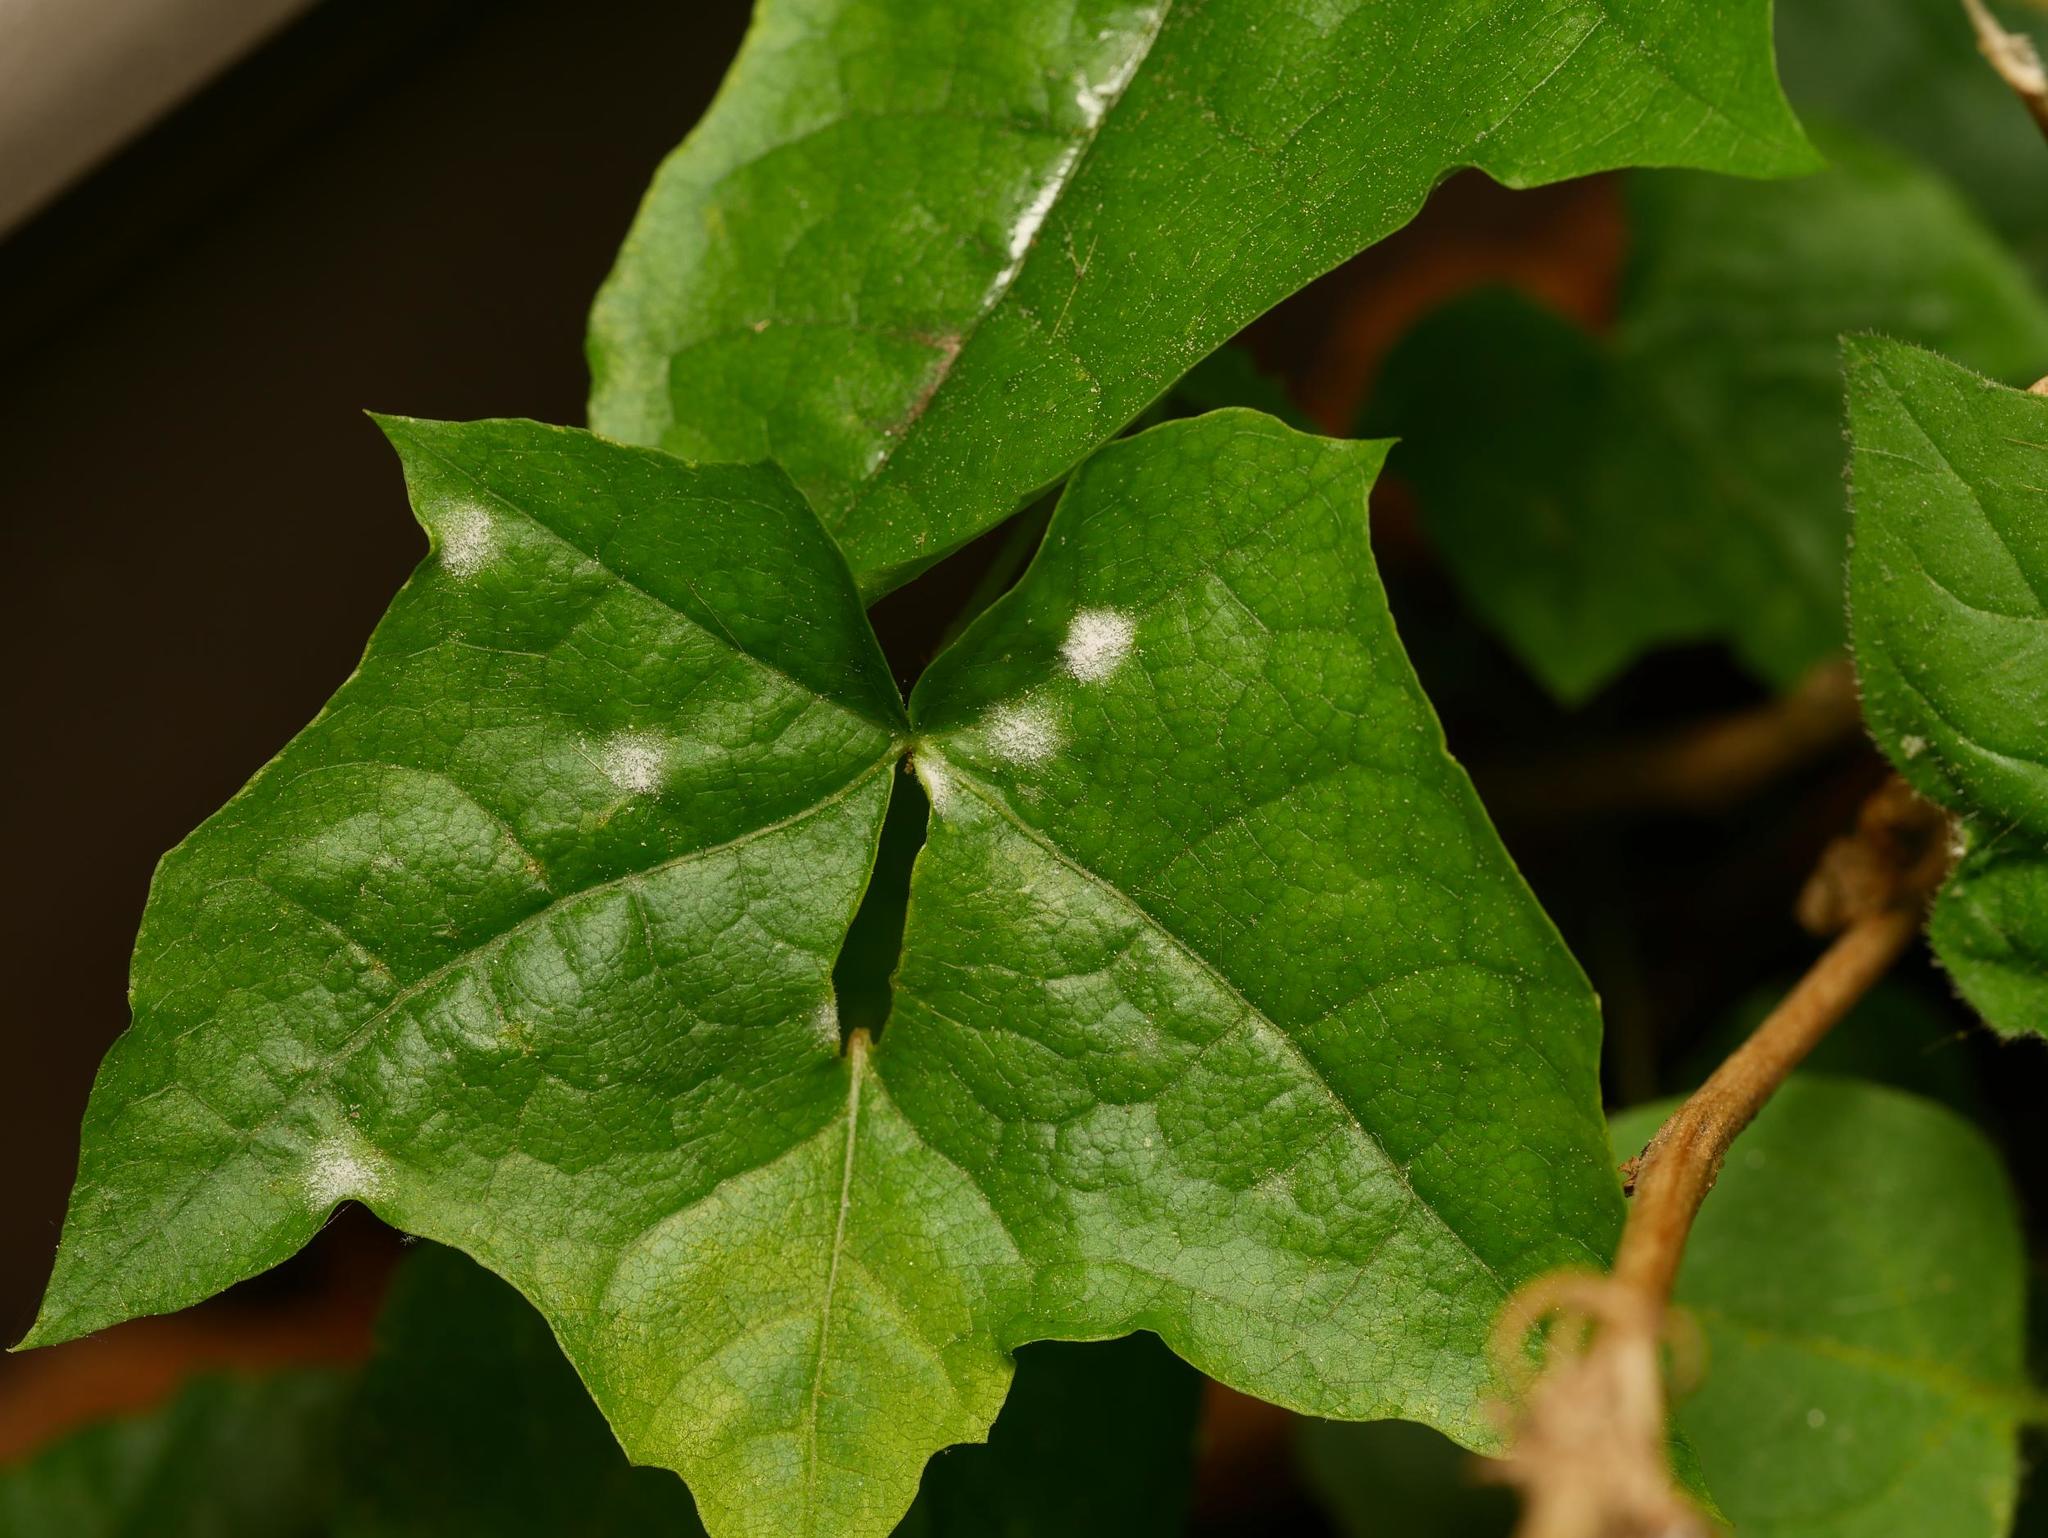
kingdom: Fungi
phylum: Ascomycota
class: Leotiomycetes
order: Helotiales
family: Erysiphaceae
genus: Sawadaea
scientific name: Sawadaea tulasnei
